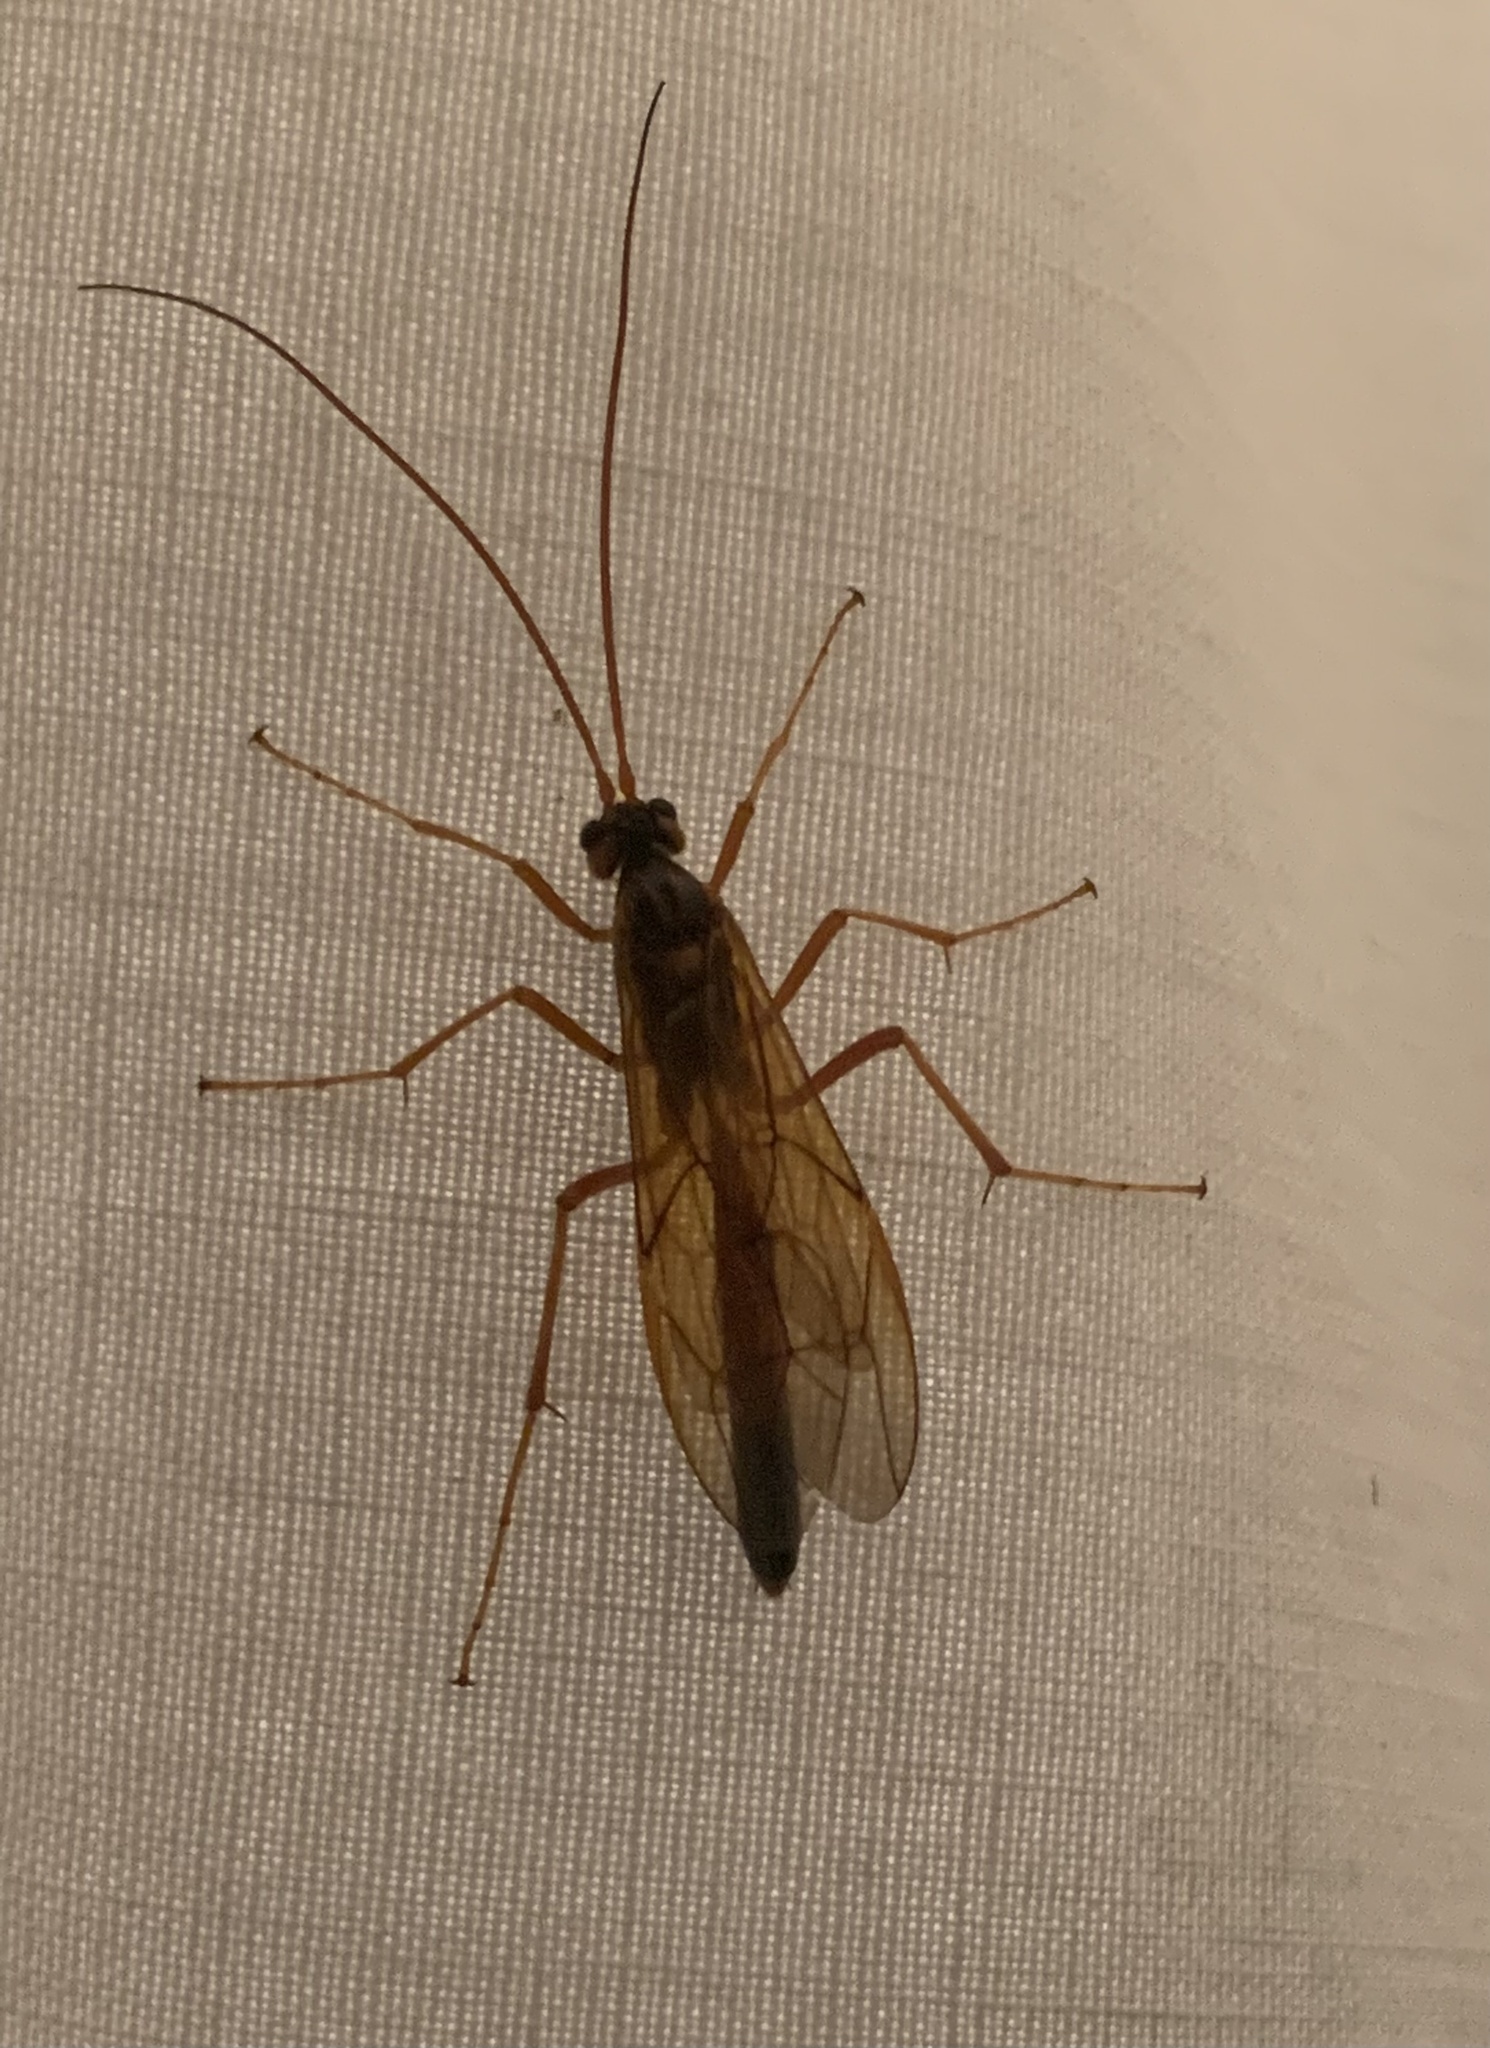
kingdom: Animalia
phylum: Arthropoda
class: Insecta
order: Hymenoptera
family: Ichneumonidae
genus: Opheltes
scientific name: Opheltes glaucopterus
